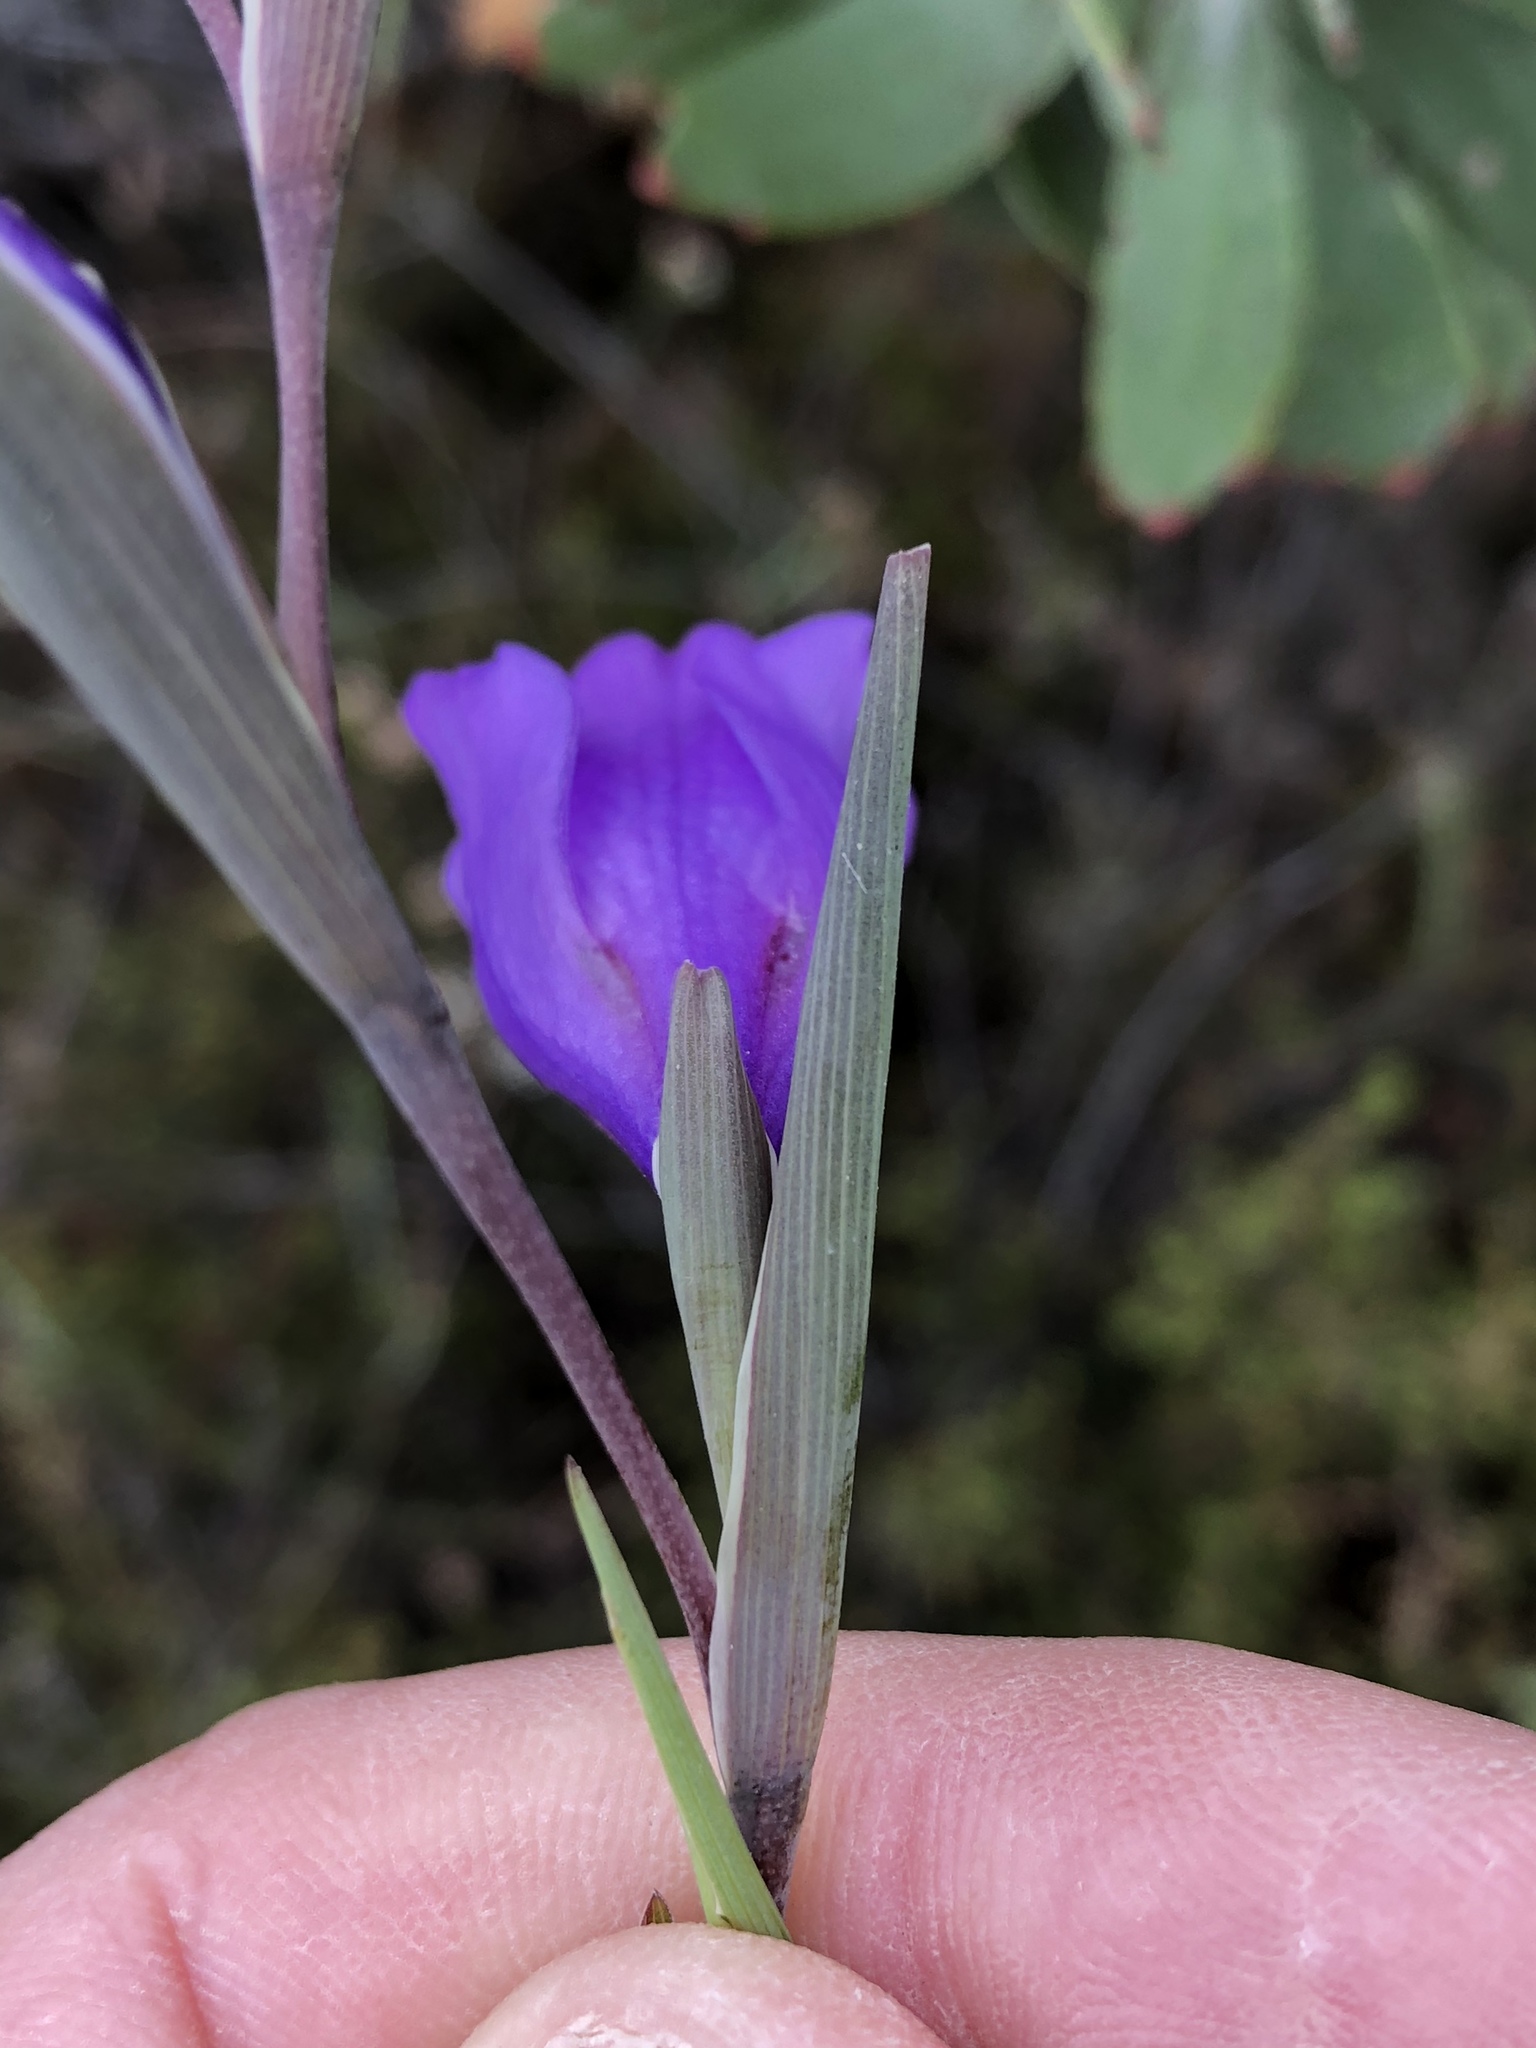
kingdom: Plantae
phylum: Tracheophyta
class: Liliopsida
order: Asparagales
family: Iridaceae
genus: Gladiolus
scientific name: Gladiolus rogersii
